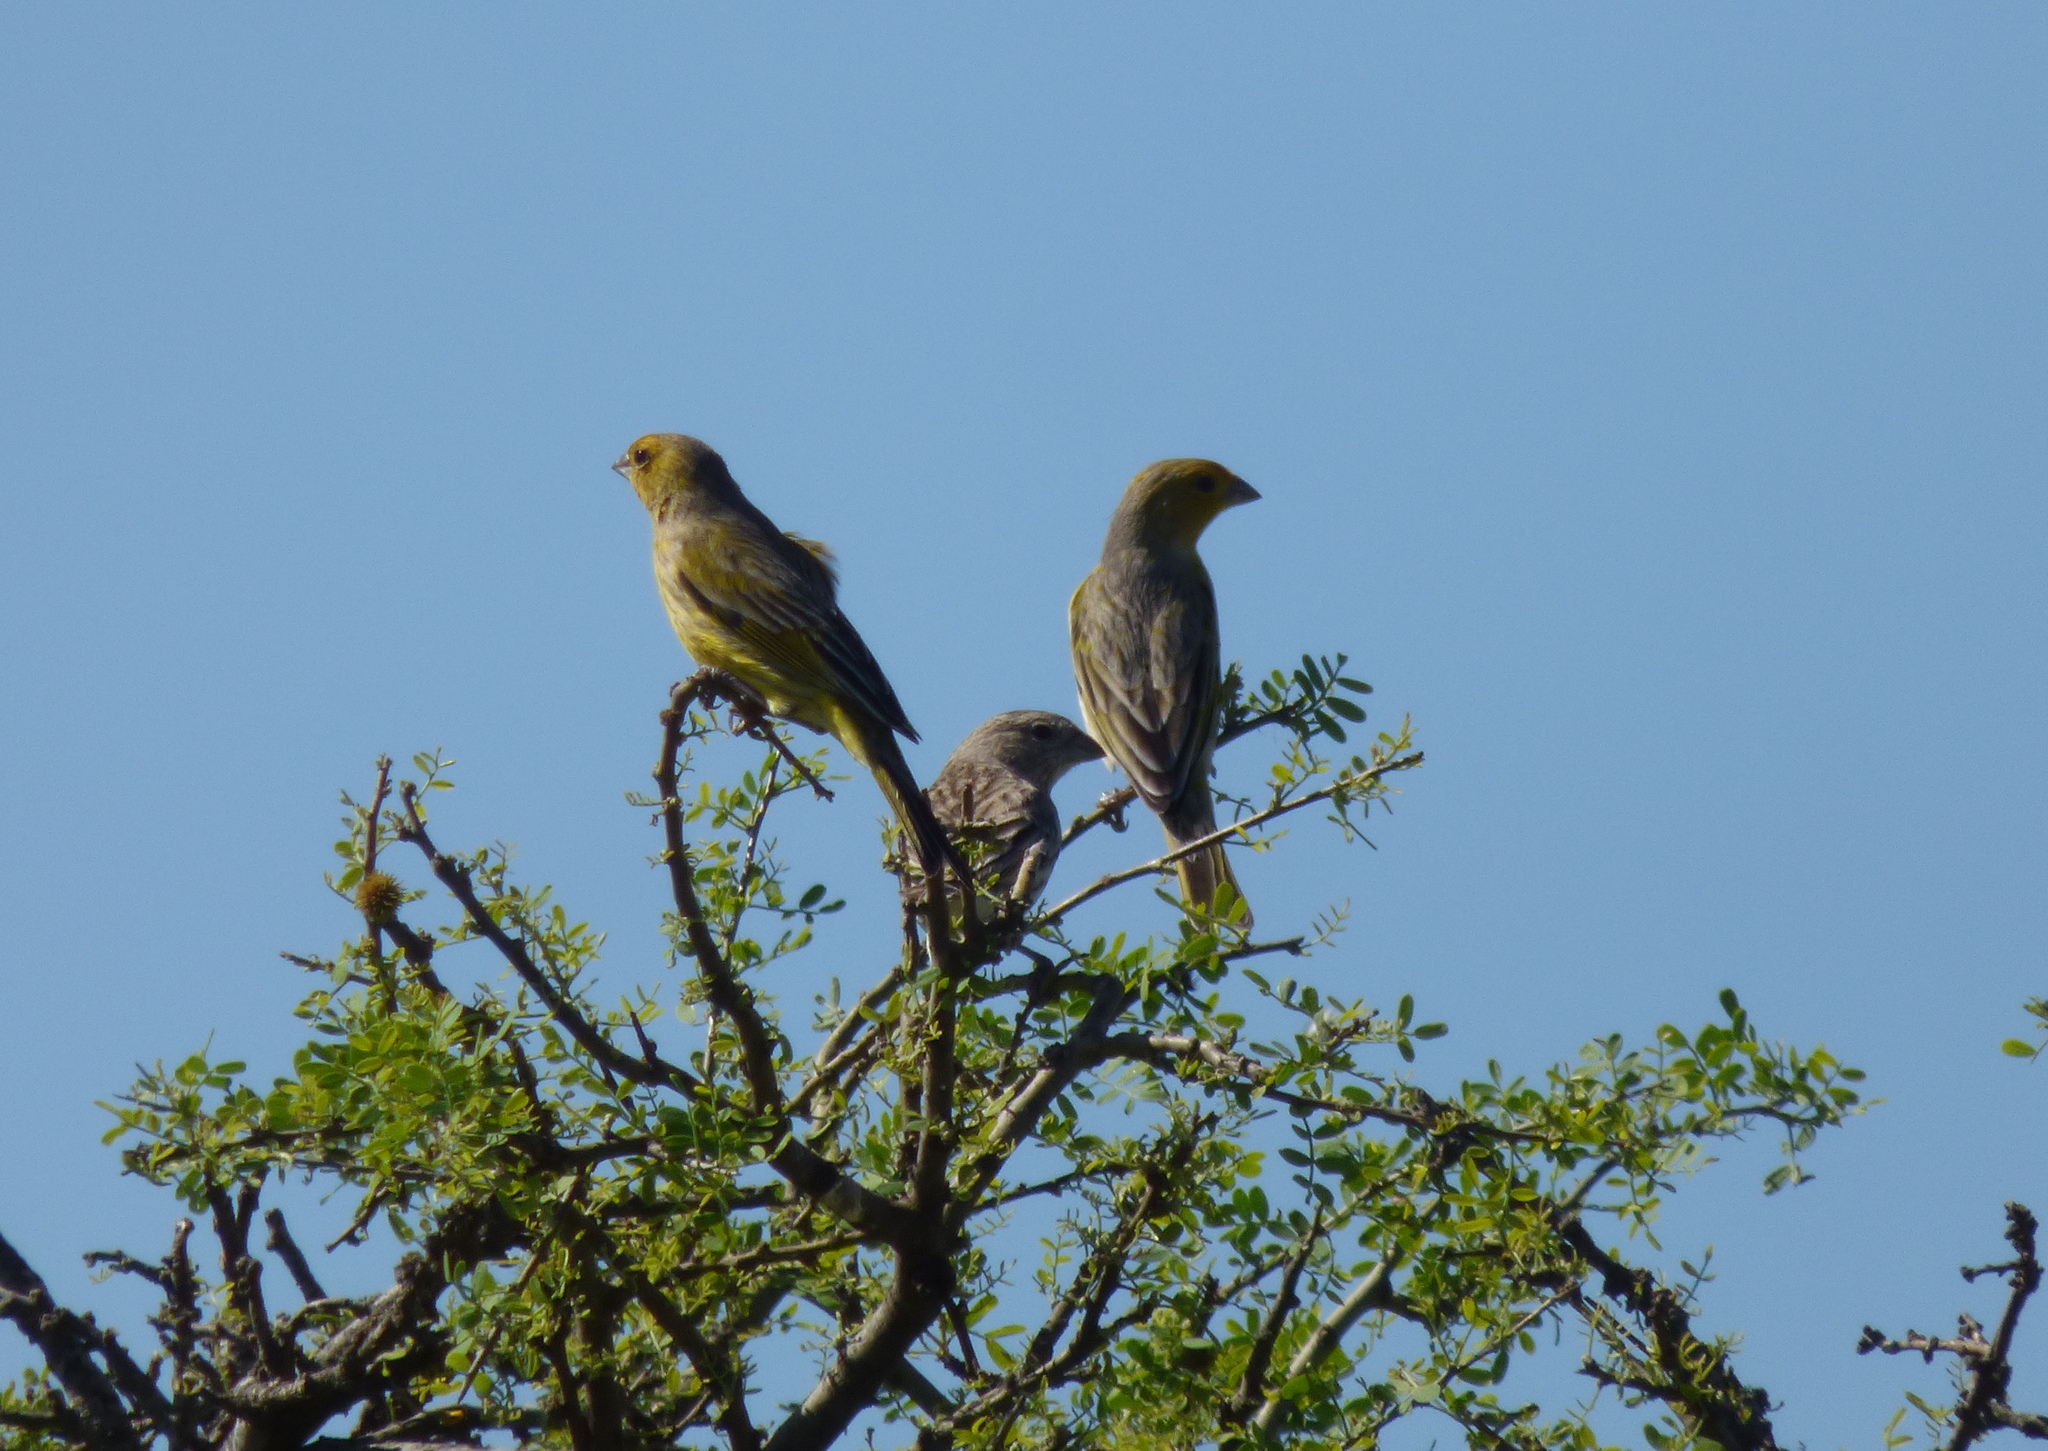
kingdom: Animalia
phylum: Chordata
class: Aves
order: Passeriformes
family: Thraupidae
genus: Sicalis
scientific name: Sicalis flaveola
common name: Saffron finch
